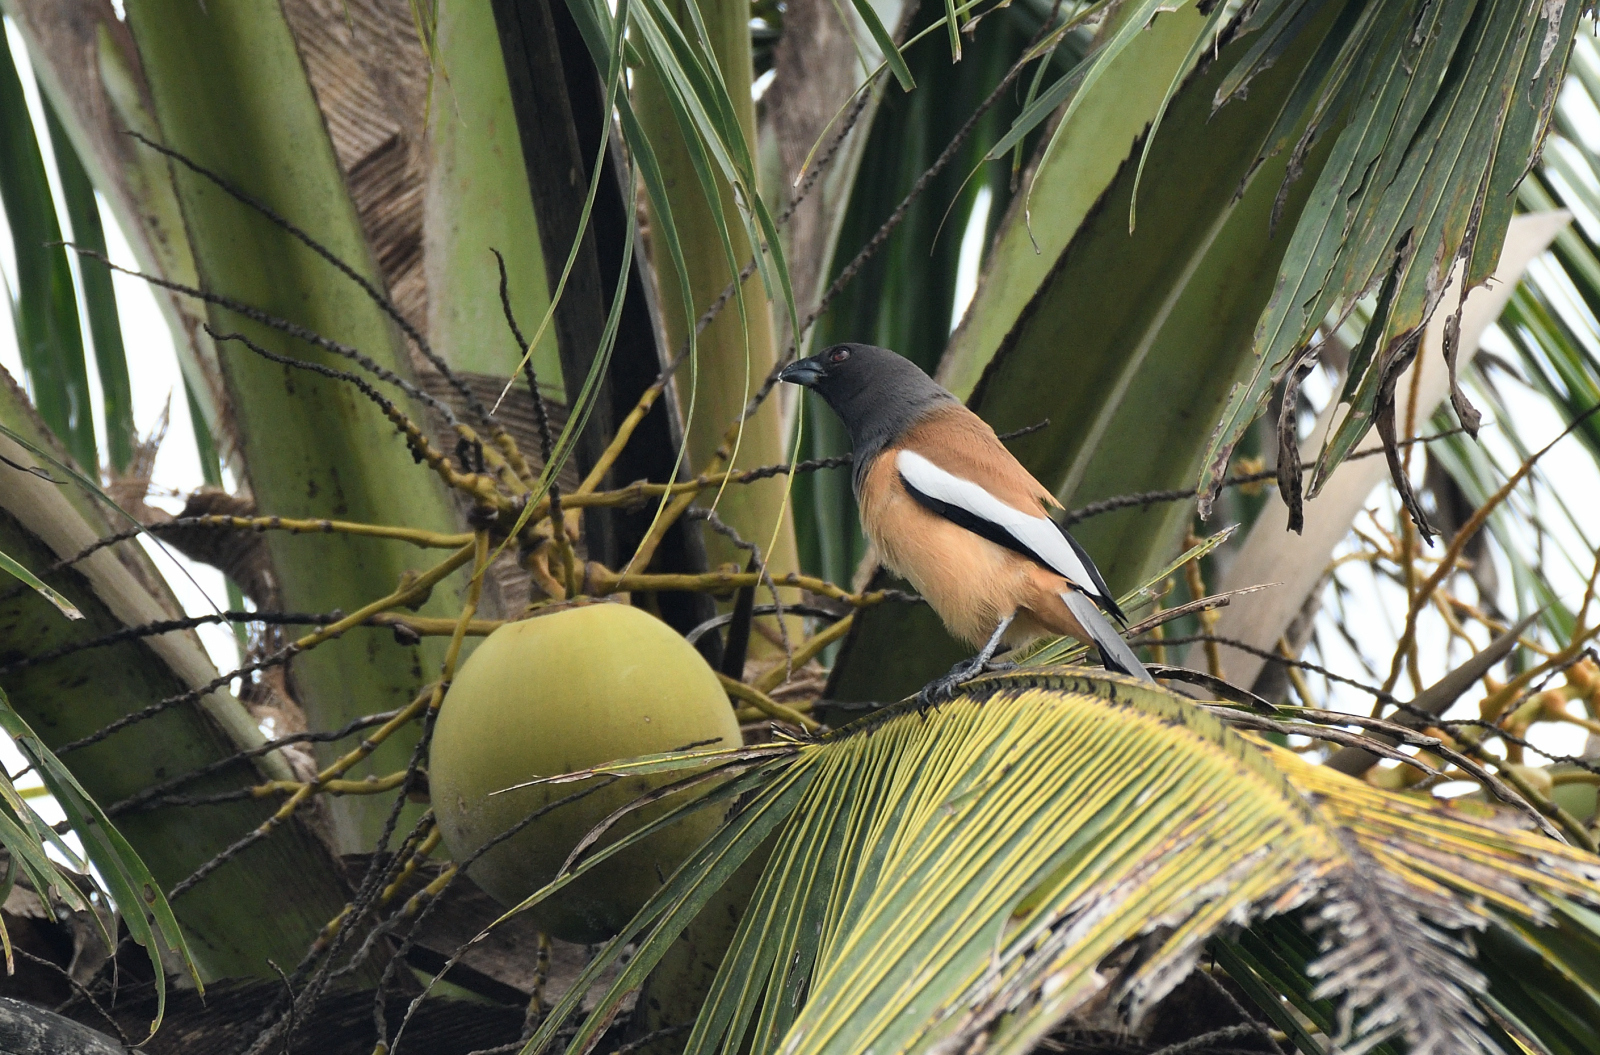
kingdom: Animalia
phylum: Chordata
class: Aves
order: Passeriformes
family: Corvidae
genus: Dendrocitta
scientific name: Dendrocitta vagabunda
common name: Rufous treepie
